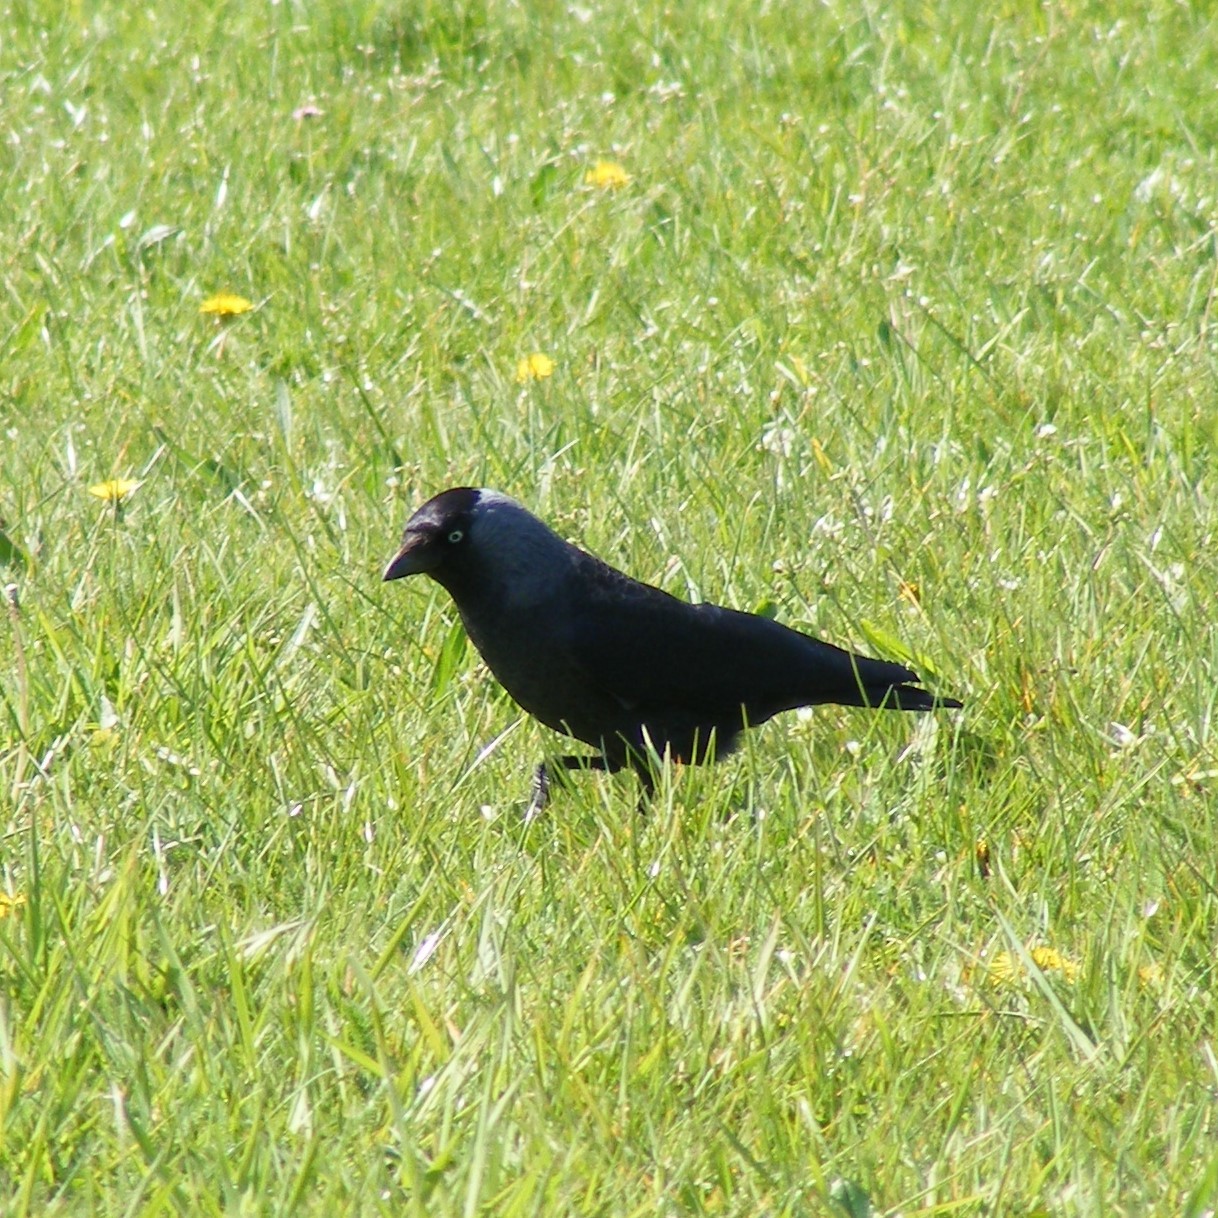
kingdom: Animalia
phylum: Chordata
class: Aves
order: Passeriformes
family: Corvidae
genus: Coloeus
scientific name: Coloeus monedula
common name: Western jackdaw
